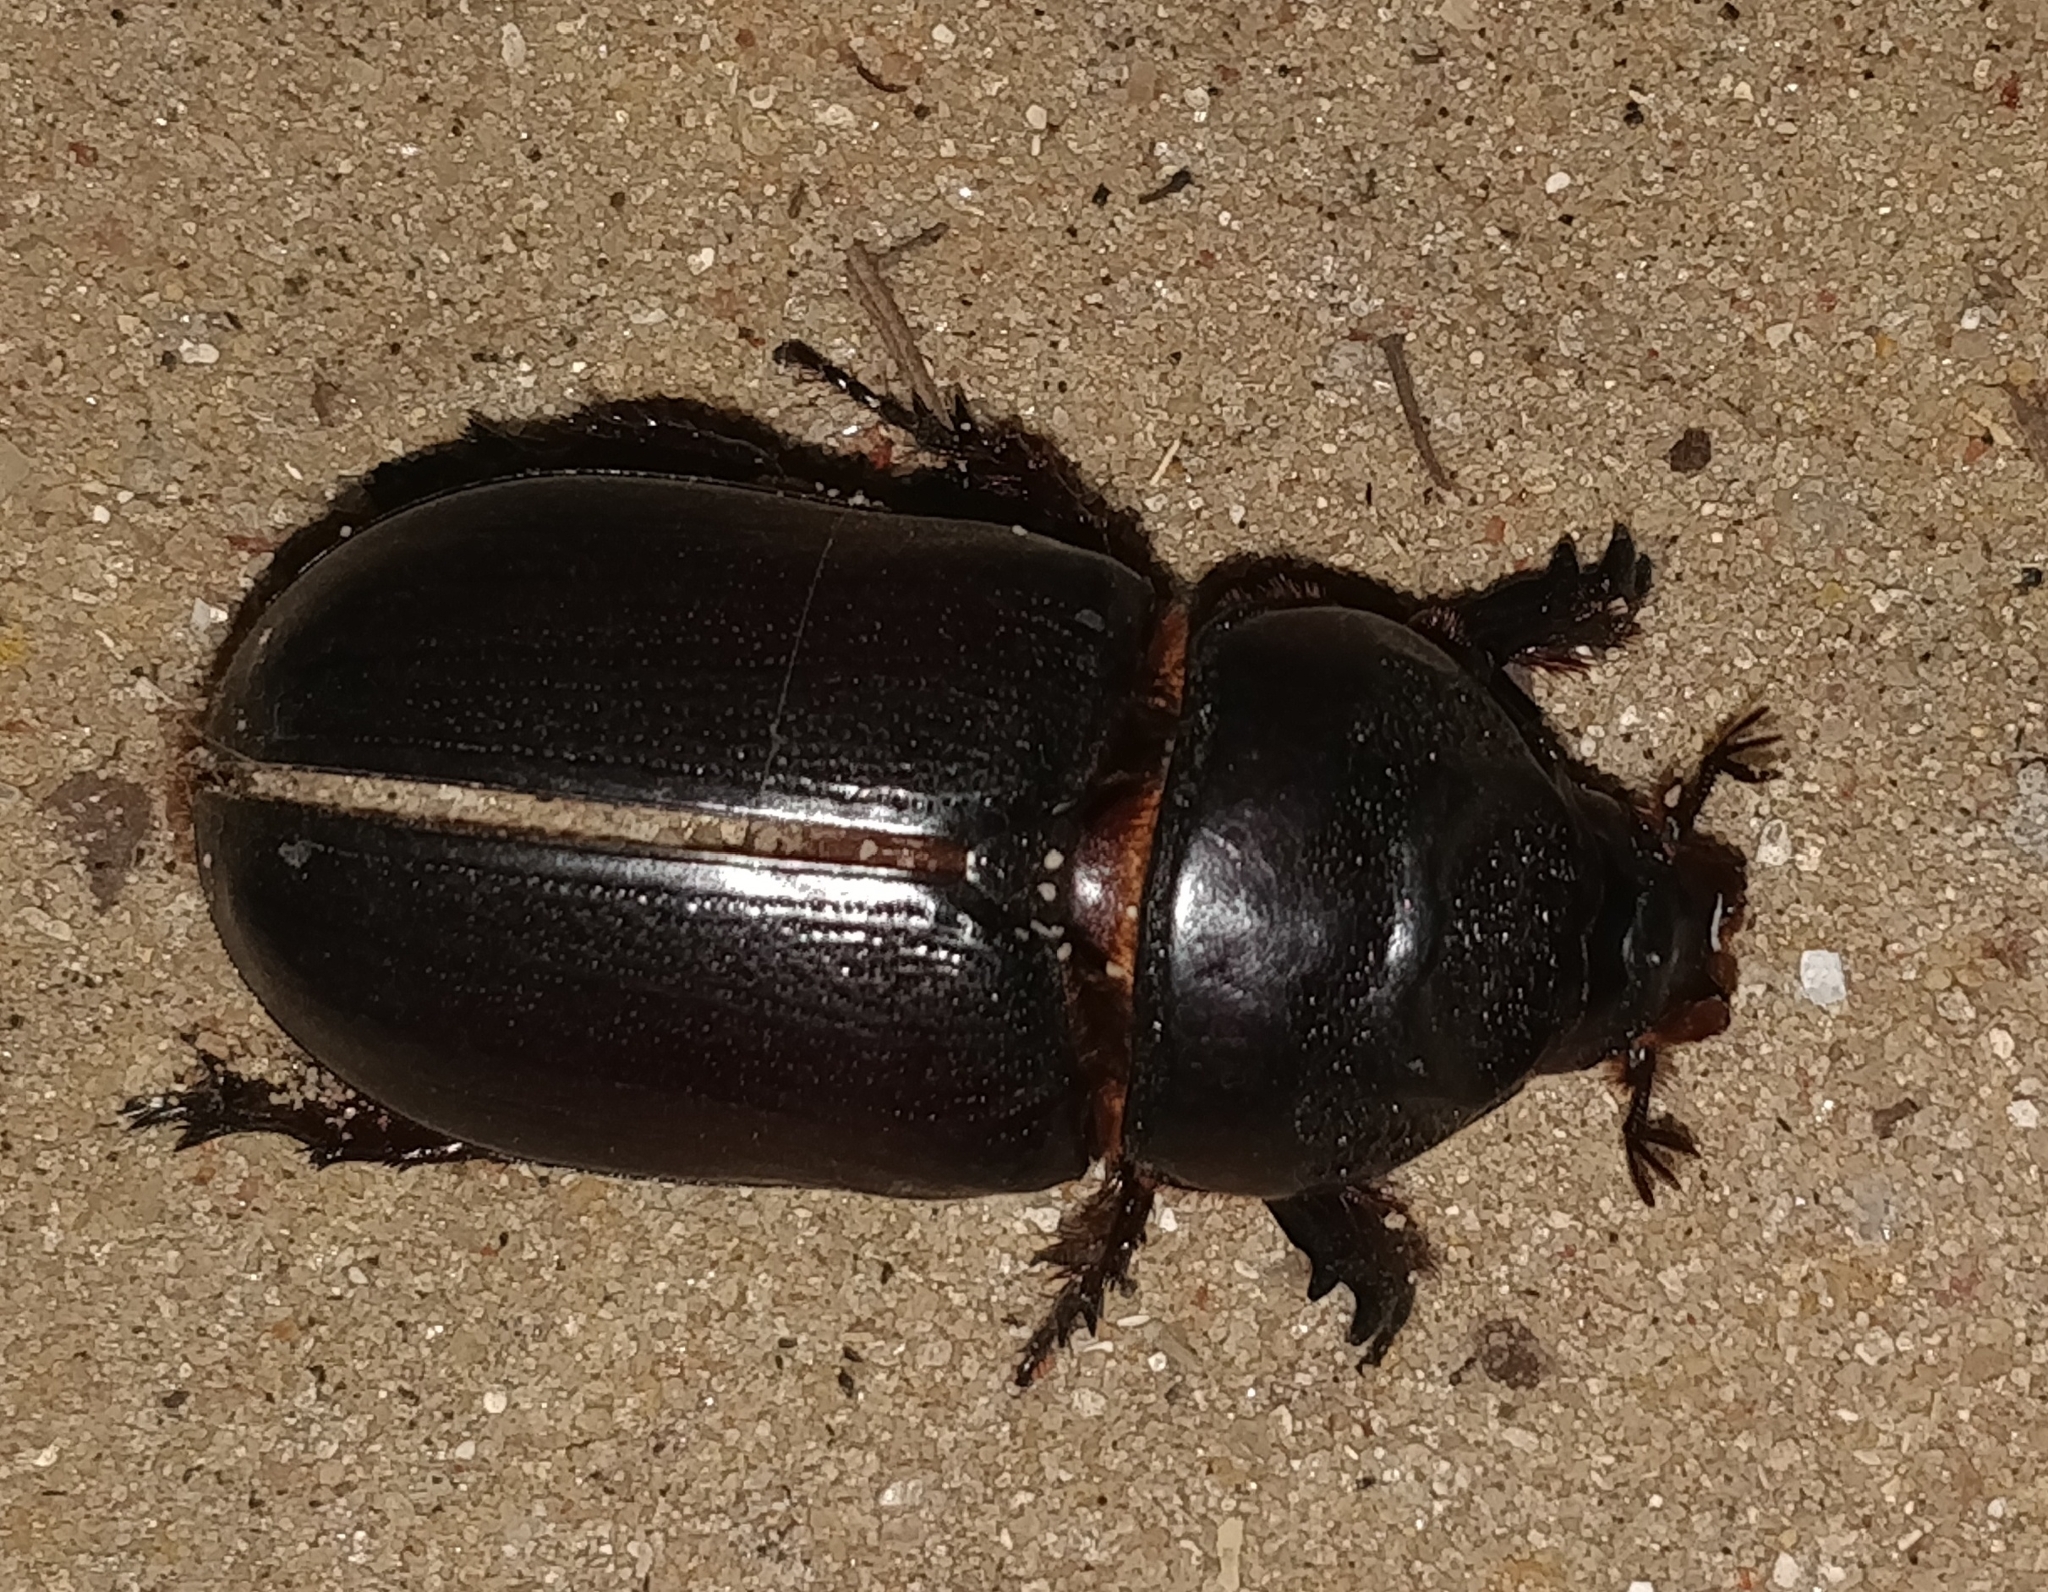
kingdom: Animalia
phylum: Arthropoda
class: Insecta
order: Coleoptera
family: Scarabaeidae
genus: Oryctes
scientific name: Oryctes rhinoceros
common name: Coconut rhinoceros beetle
